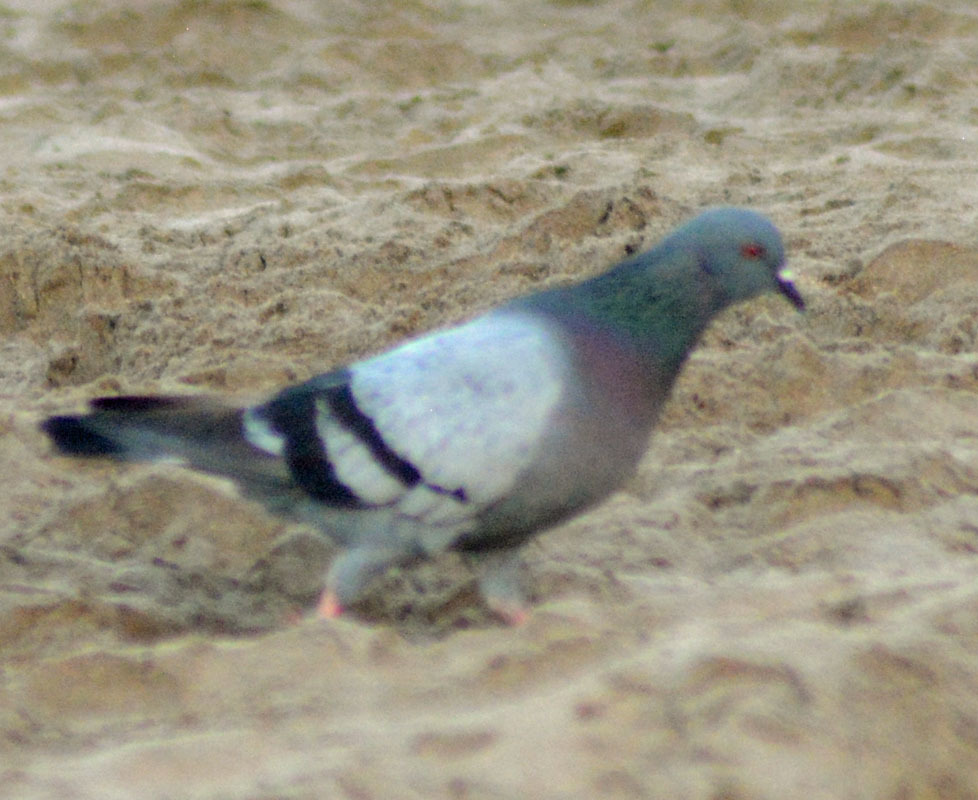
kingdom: Animalia
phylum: Chordata
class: Aves
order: Columbiformes
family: Columbidae
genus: Columba
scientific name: Columba livia
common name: Rock pigeon
